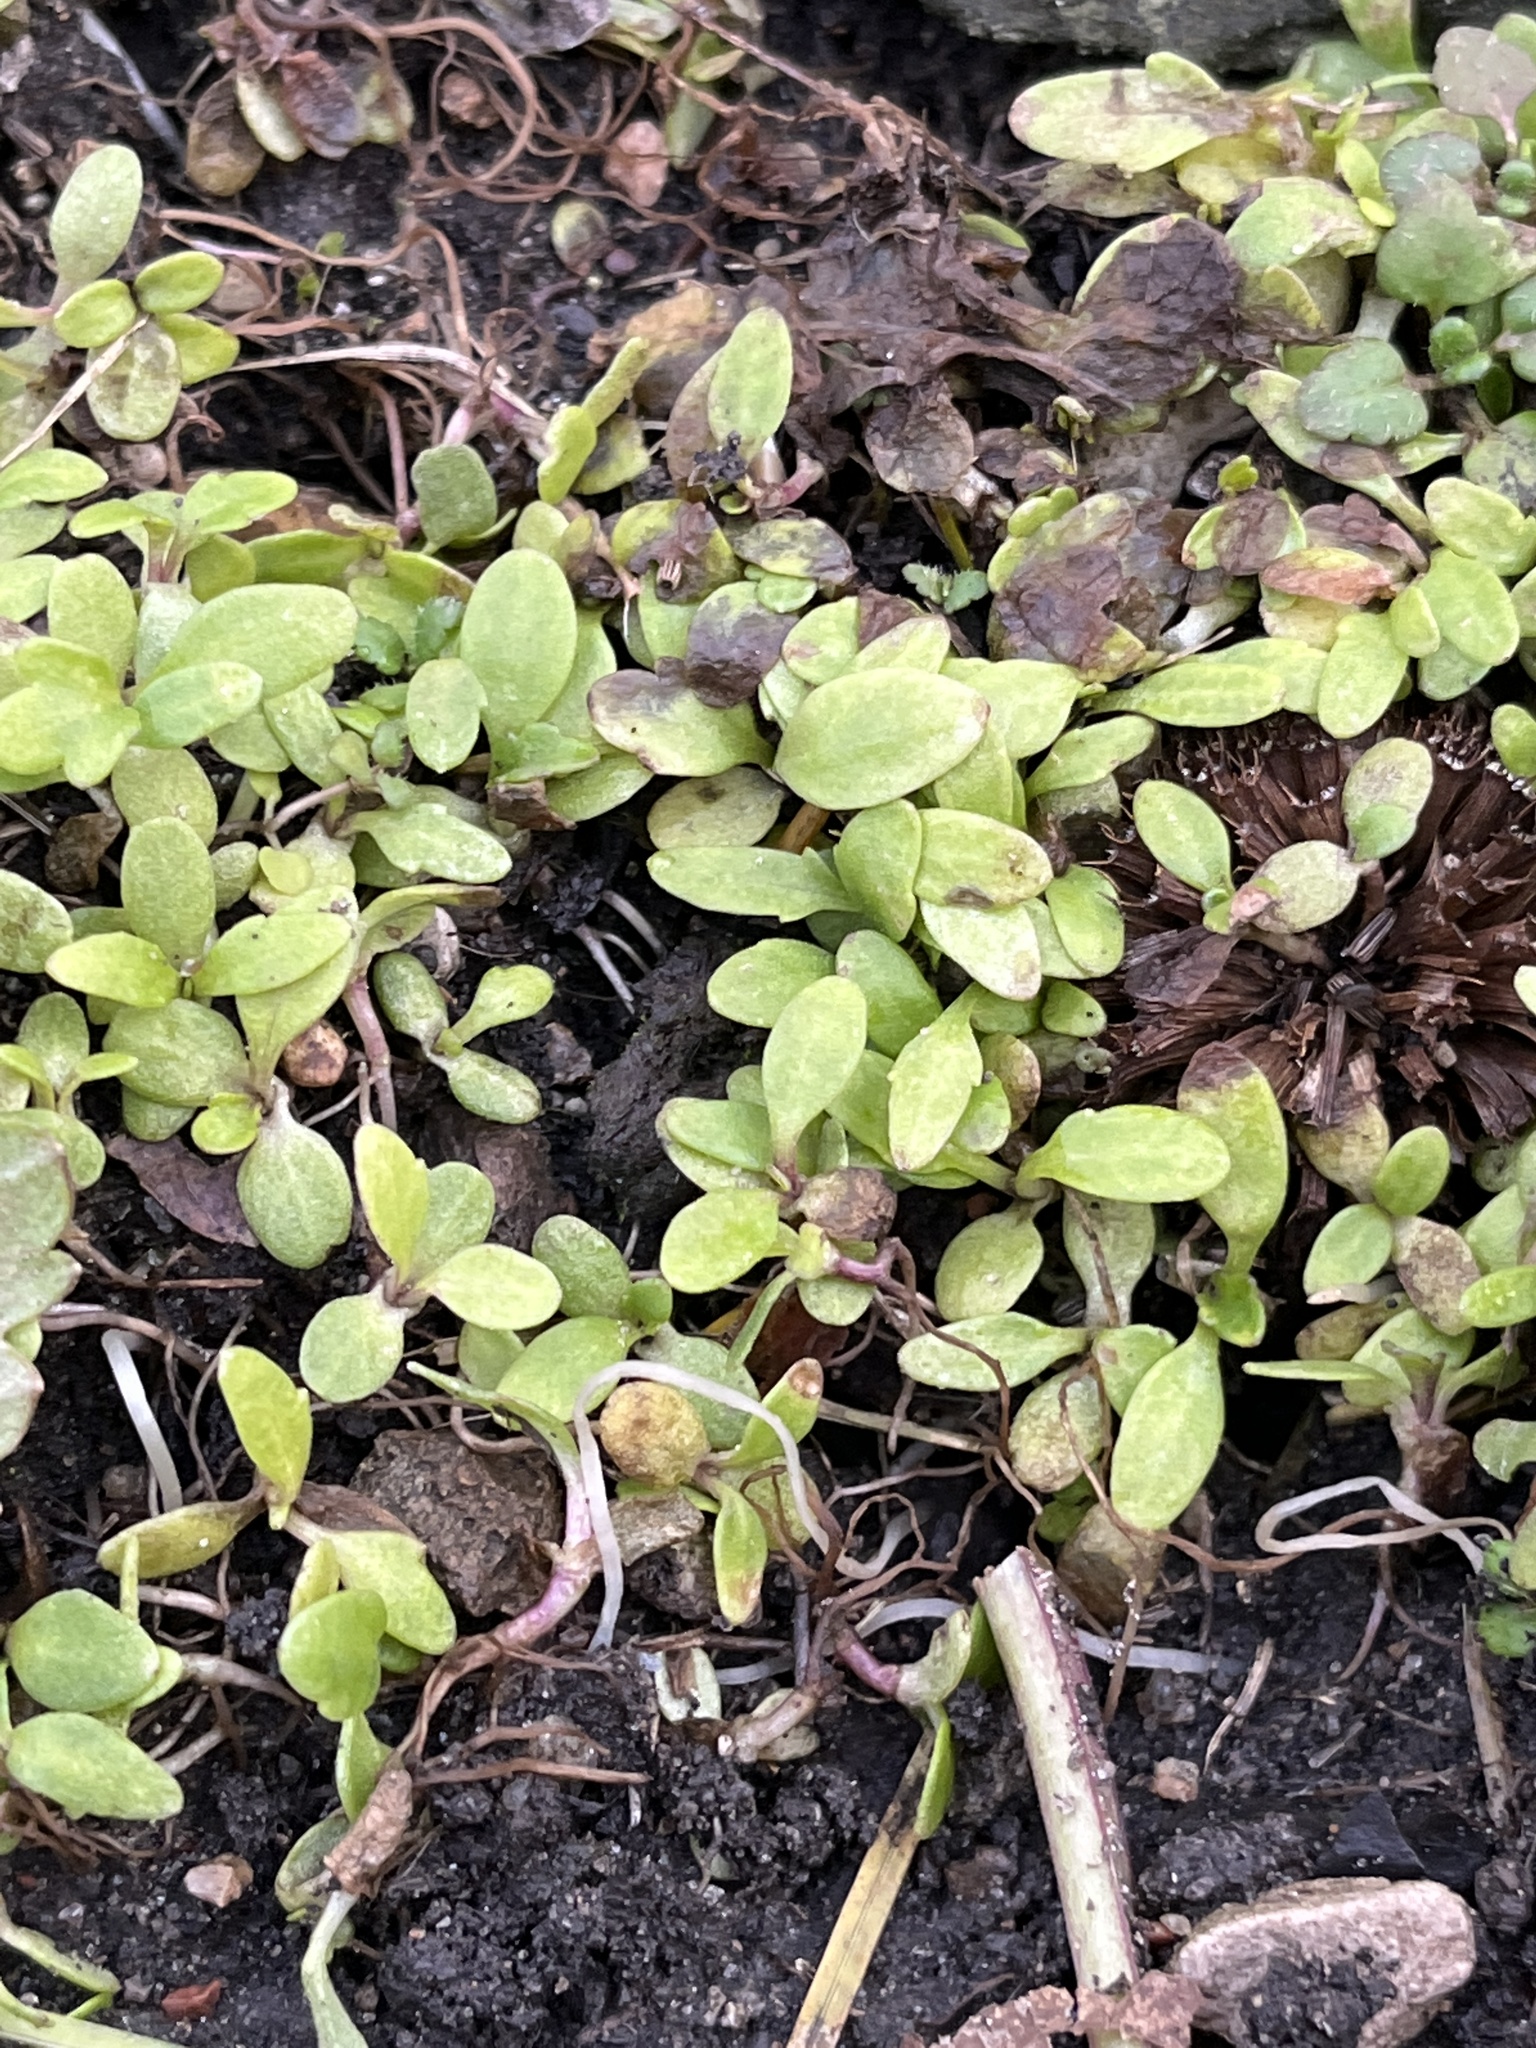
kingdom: Plantae
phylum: Tracheophyta
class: Magnoliopsida
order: Caryophyllales
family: Caryophyllaceae
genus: Stellaria
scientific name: Stellaria media
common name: Common chickweed
